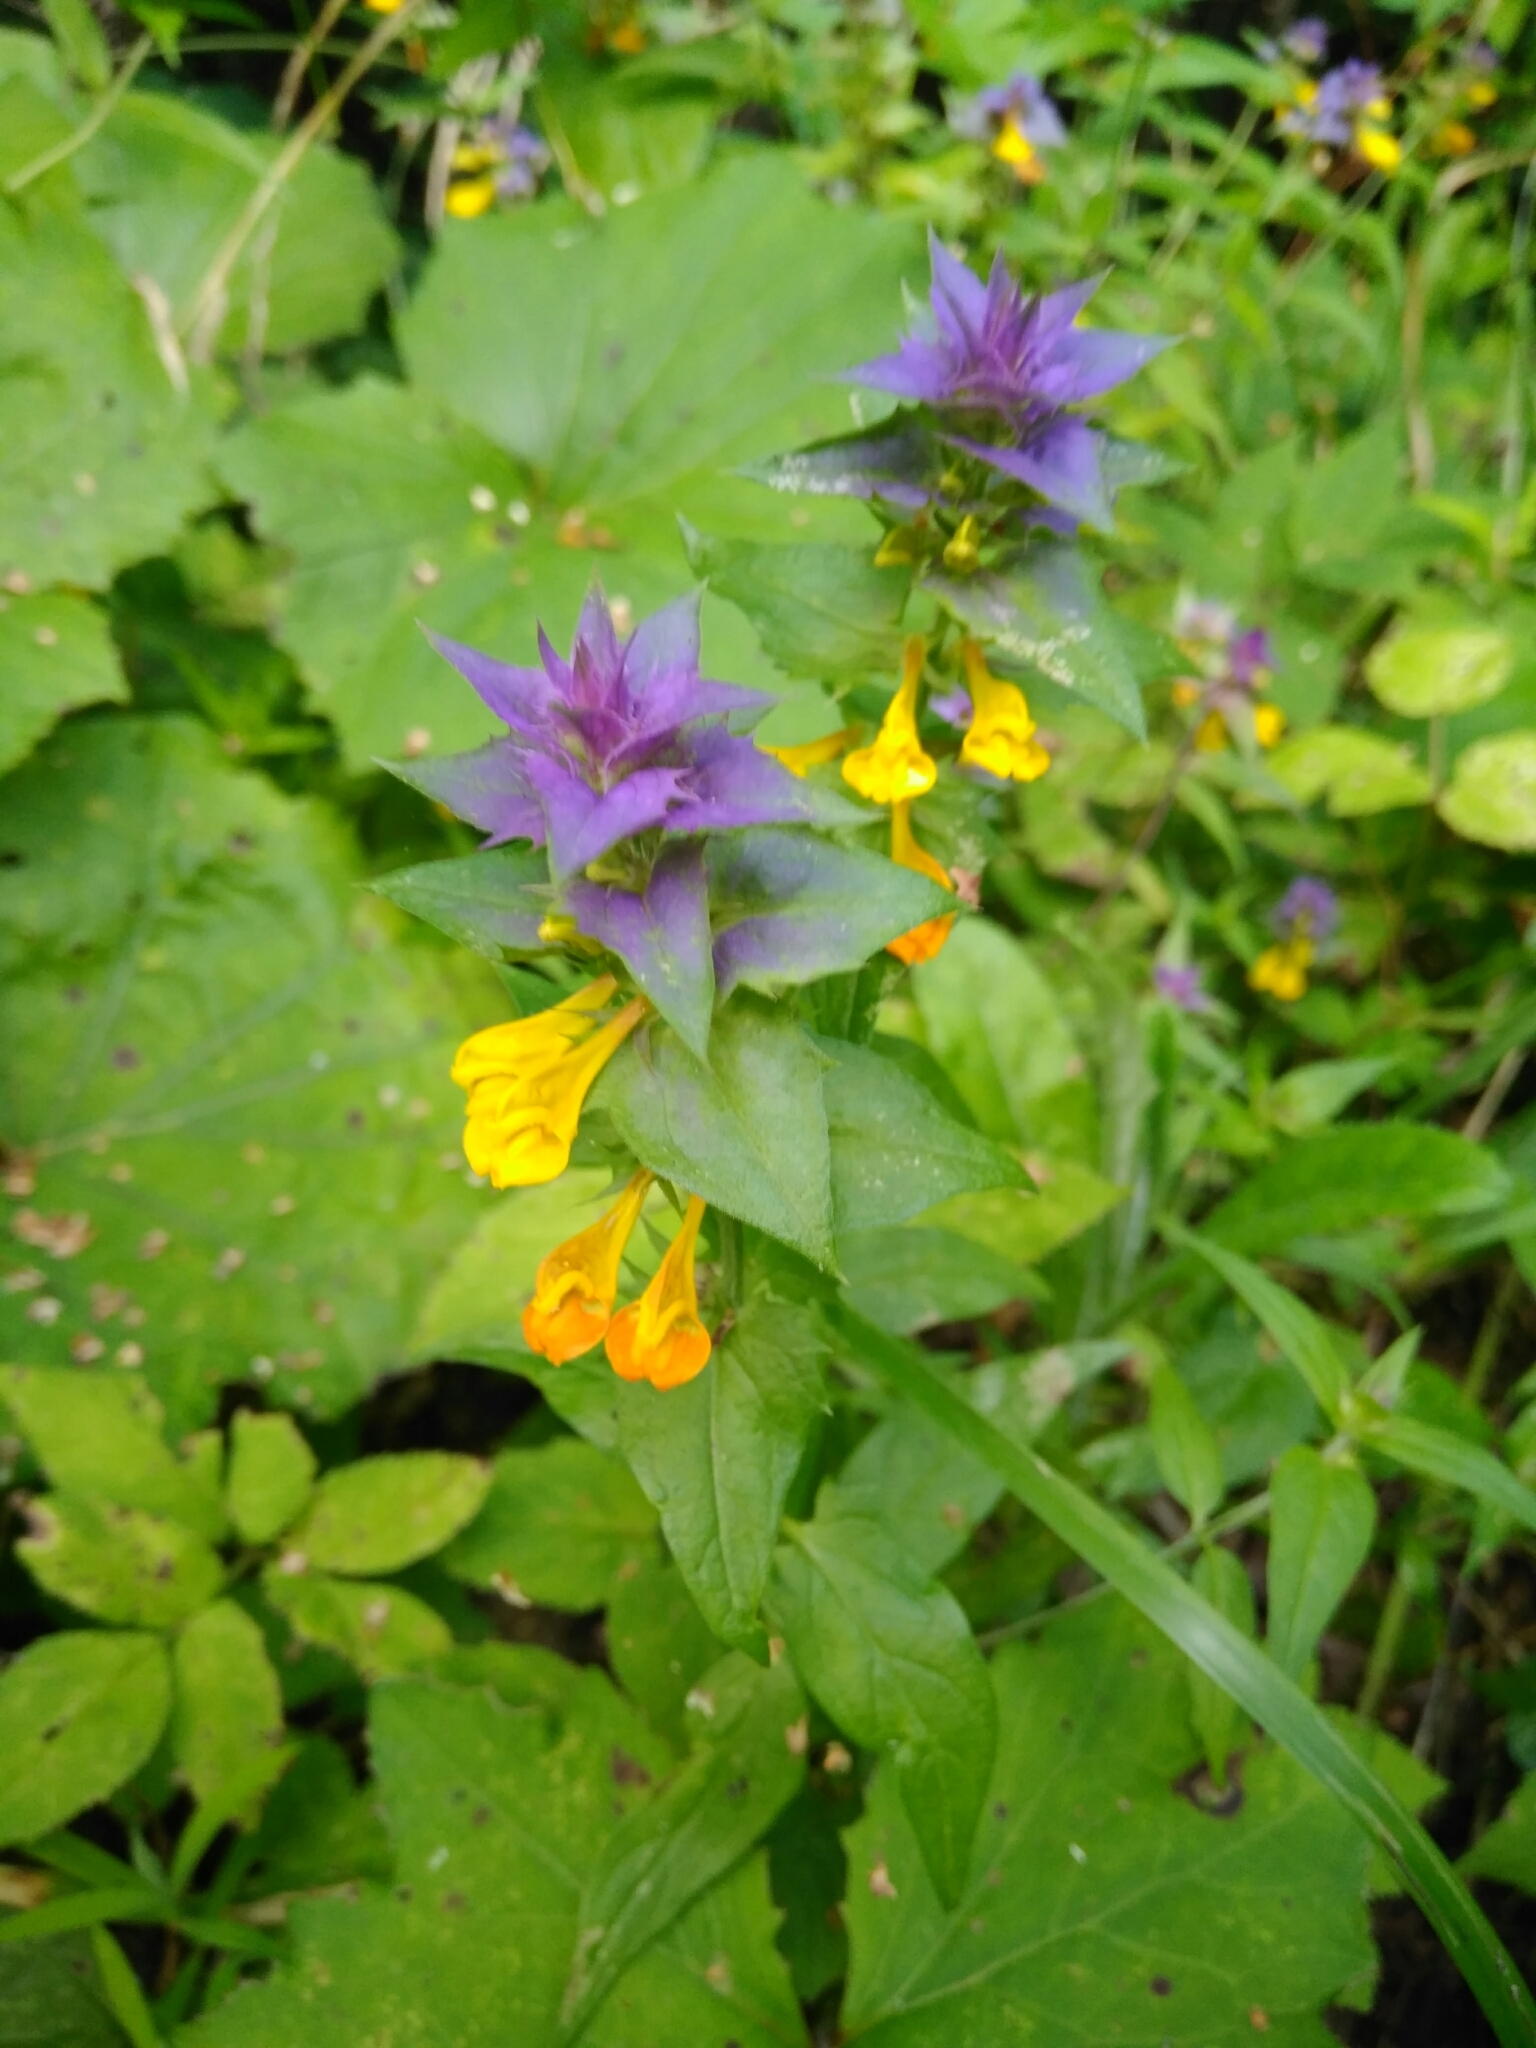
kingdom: Plantae
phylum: Tracheophyta
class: Magnoliopsida
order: Lamiales
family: Orobanchaceae
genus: Melampyrum
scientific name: Melampyrum nemorosum
